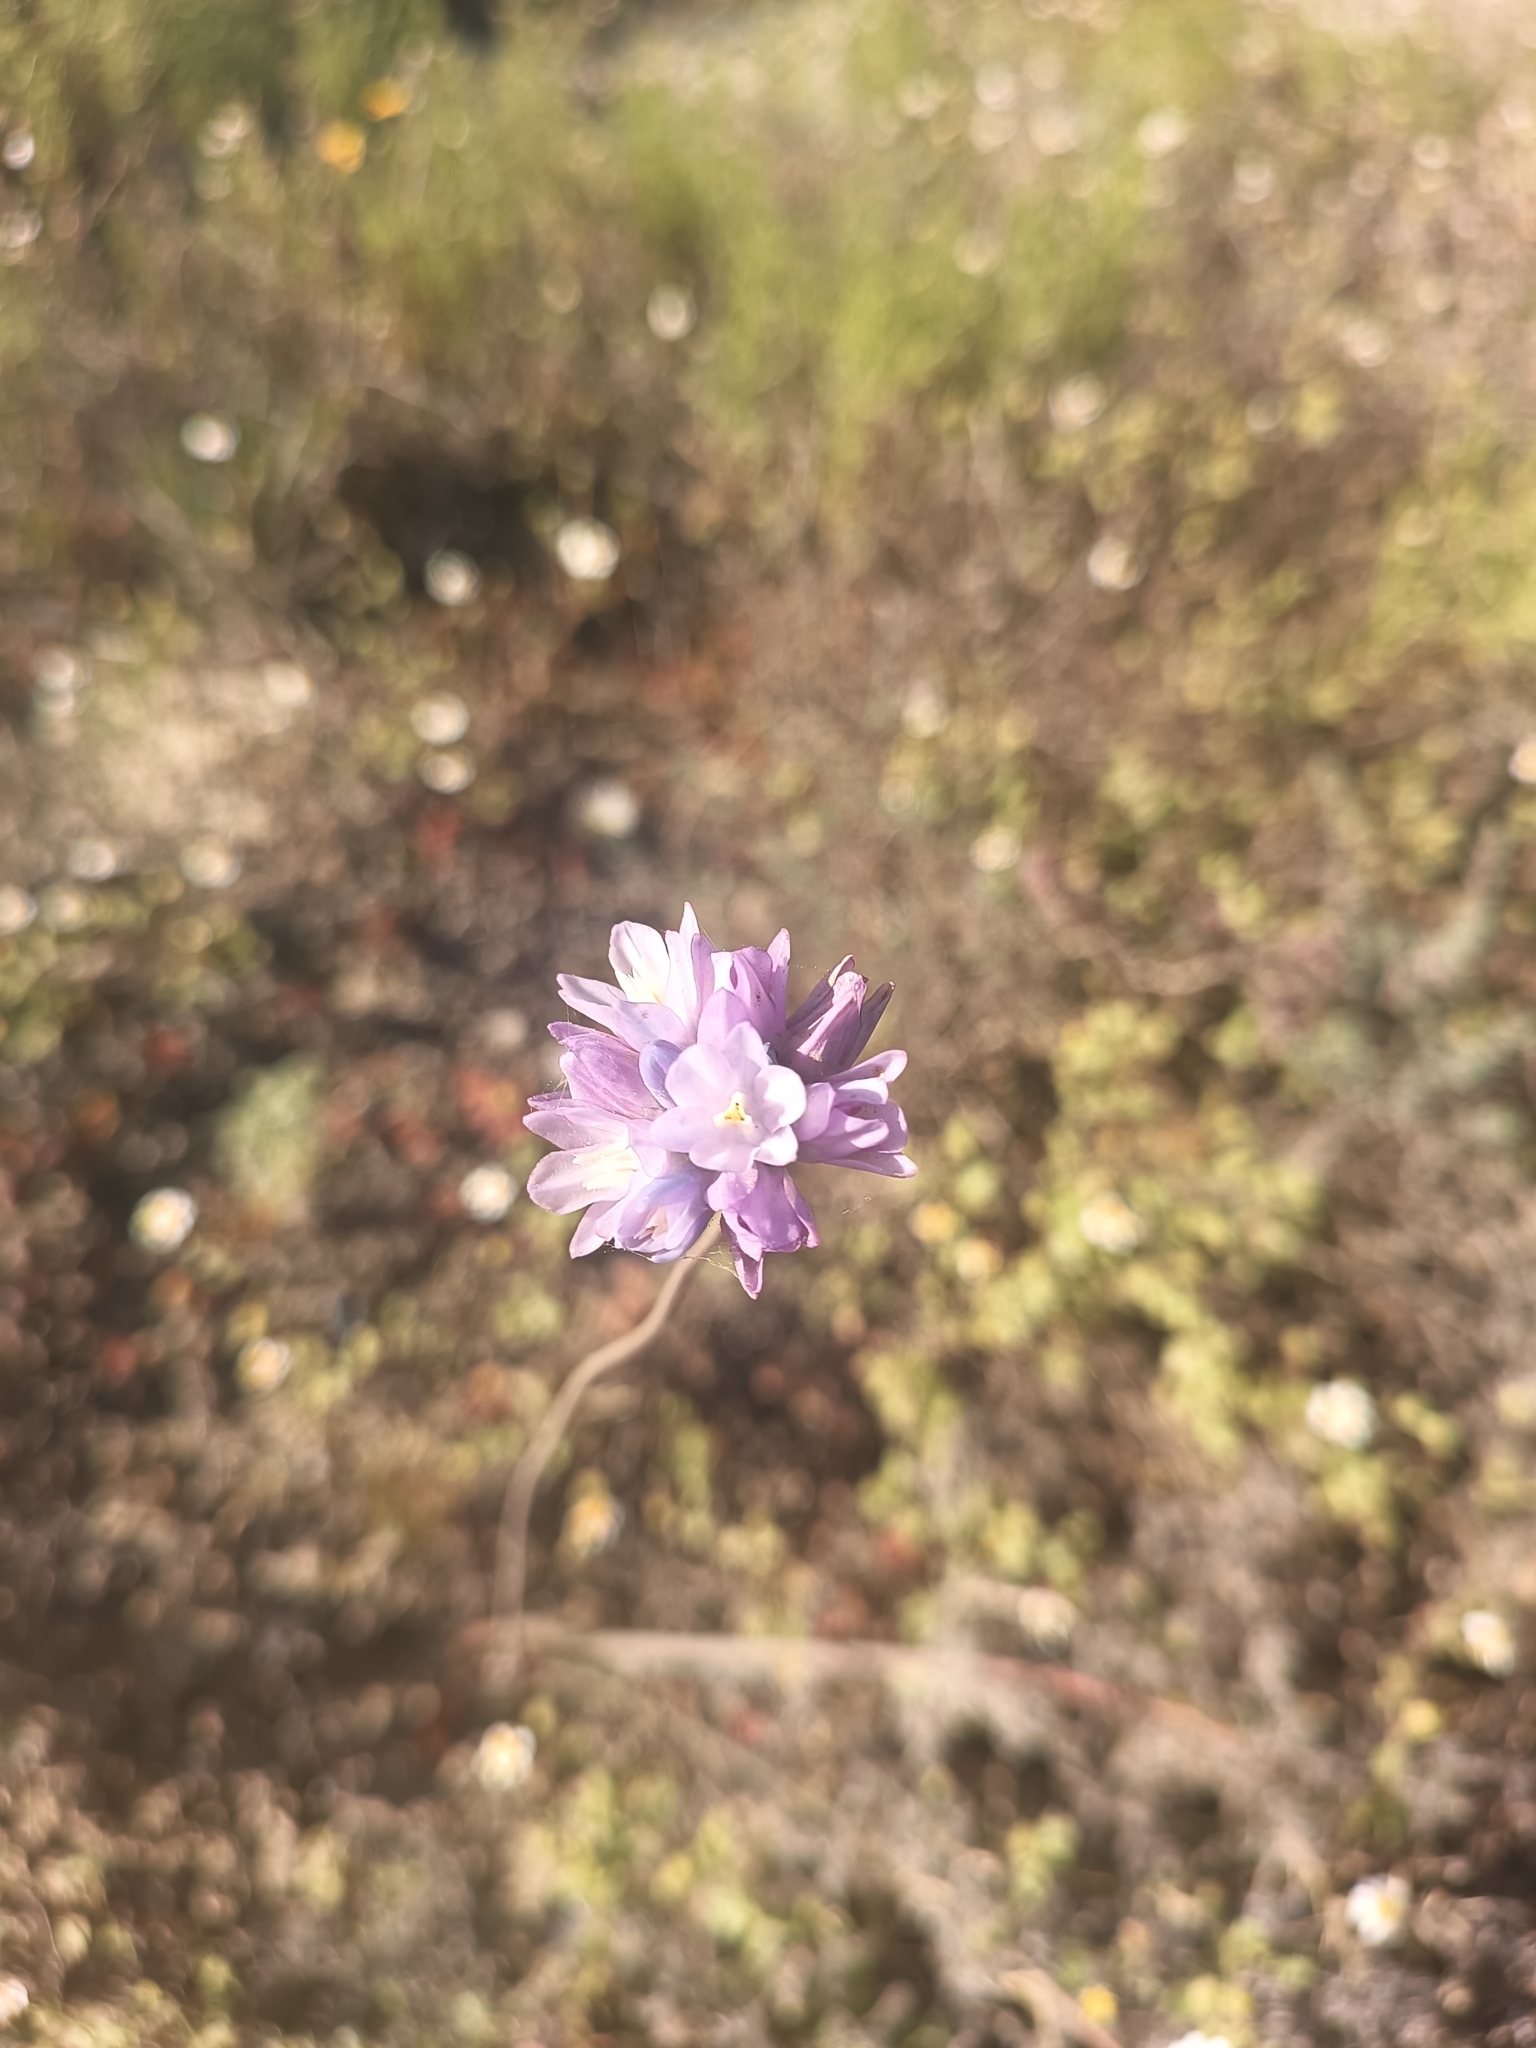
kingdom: Plantae
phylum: Tracheophyta
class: Liliopsida
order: Asparagales
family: Asparagaceae
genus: Dipterostemon
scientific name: Dipterostemon capitatus
